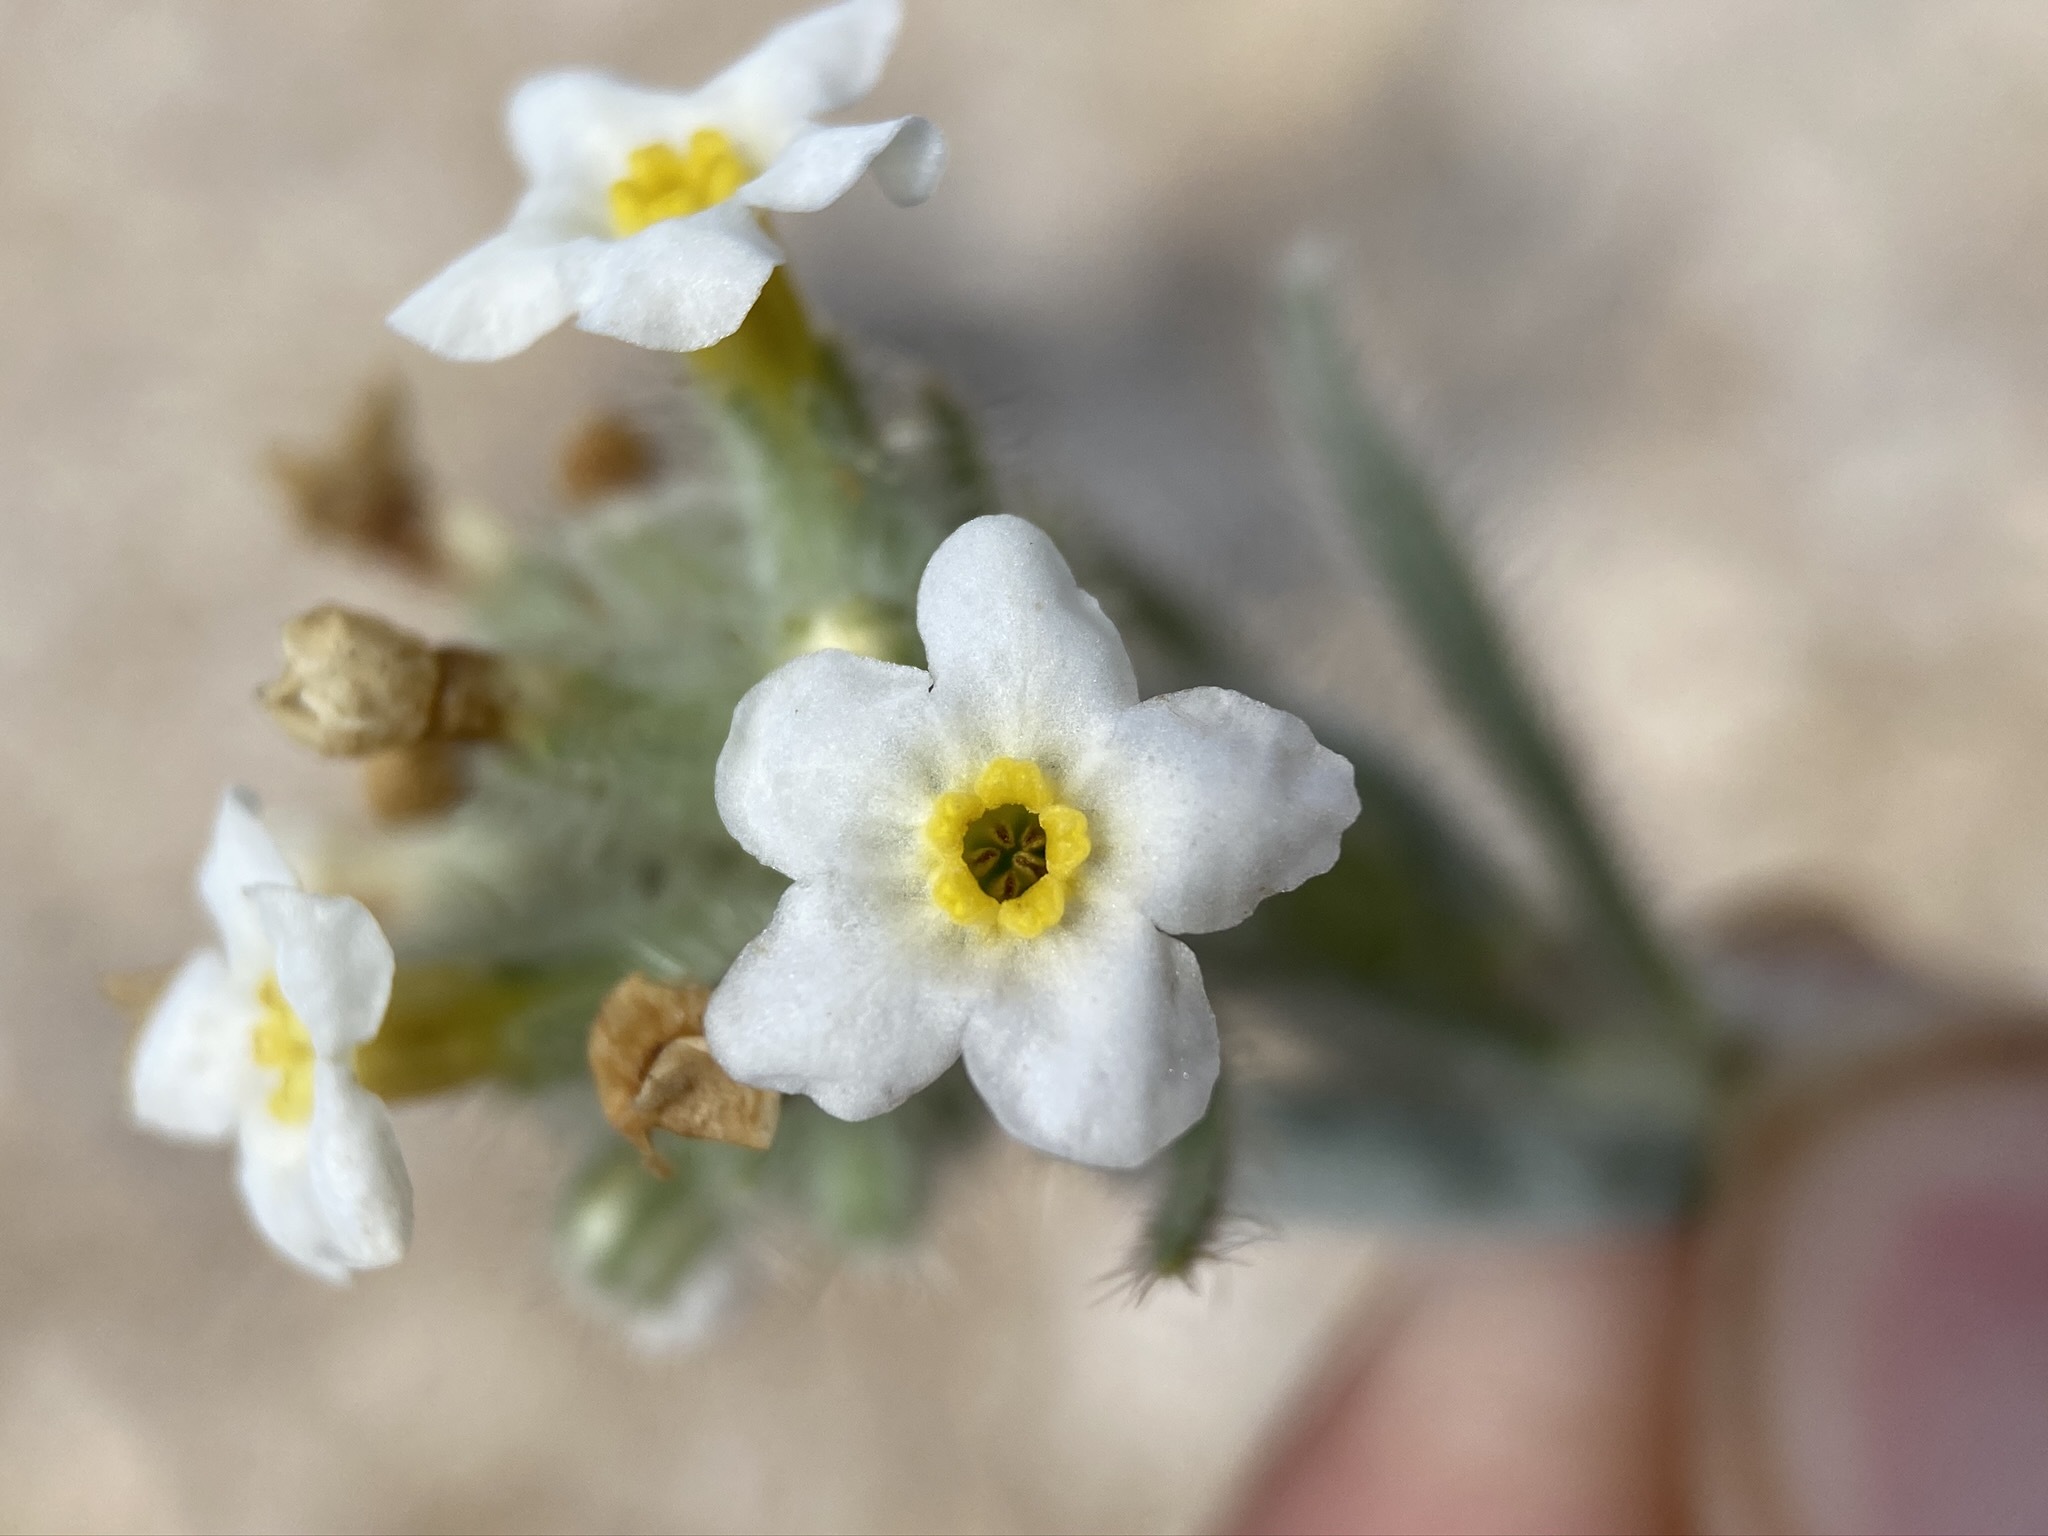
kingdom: Plantae
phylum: Tracheophyta
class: Magnoliopsida
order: Boraginales
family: Boraginaceae
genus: Oreocarya
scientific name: Oreocarya flavoculata
